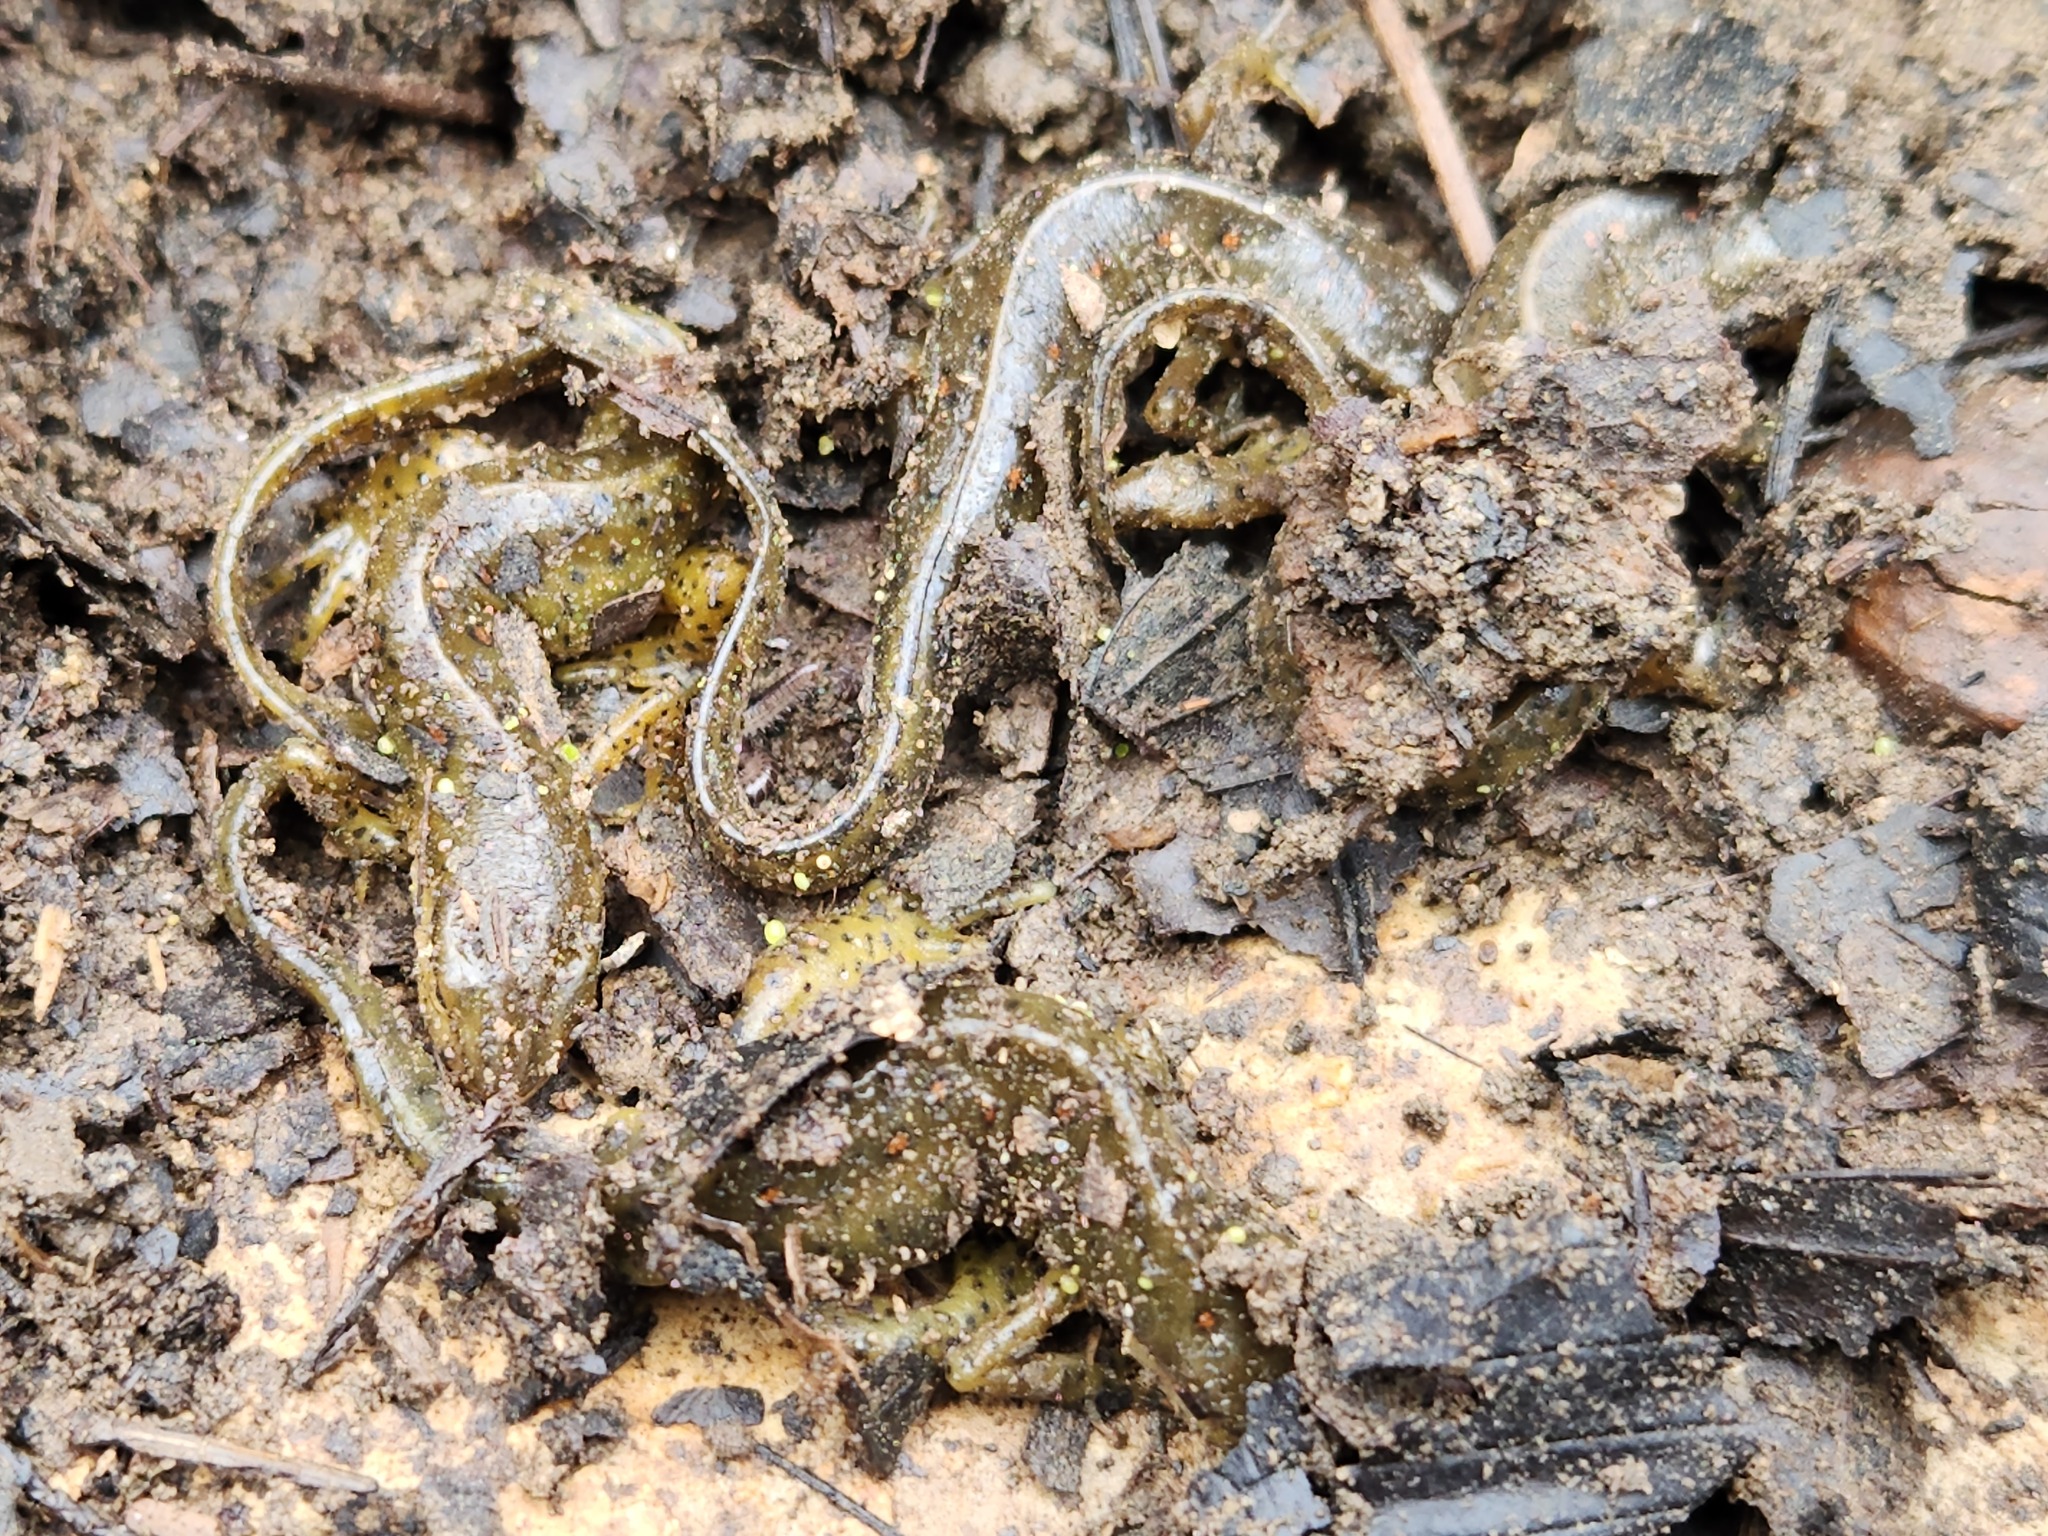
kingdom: Animalia
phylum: Chordata
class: Amphibia
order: Caudata
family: Salamandridae
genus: Notophthalmus
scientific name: Notophthalmus viridescens
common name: Eastern newt
